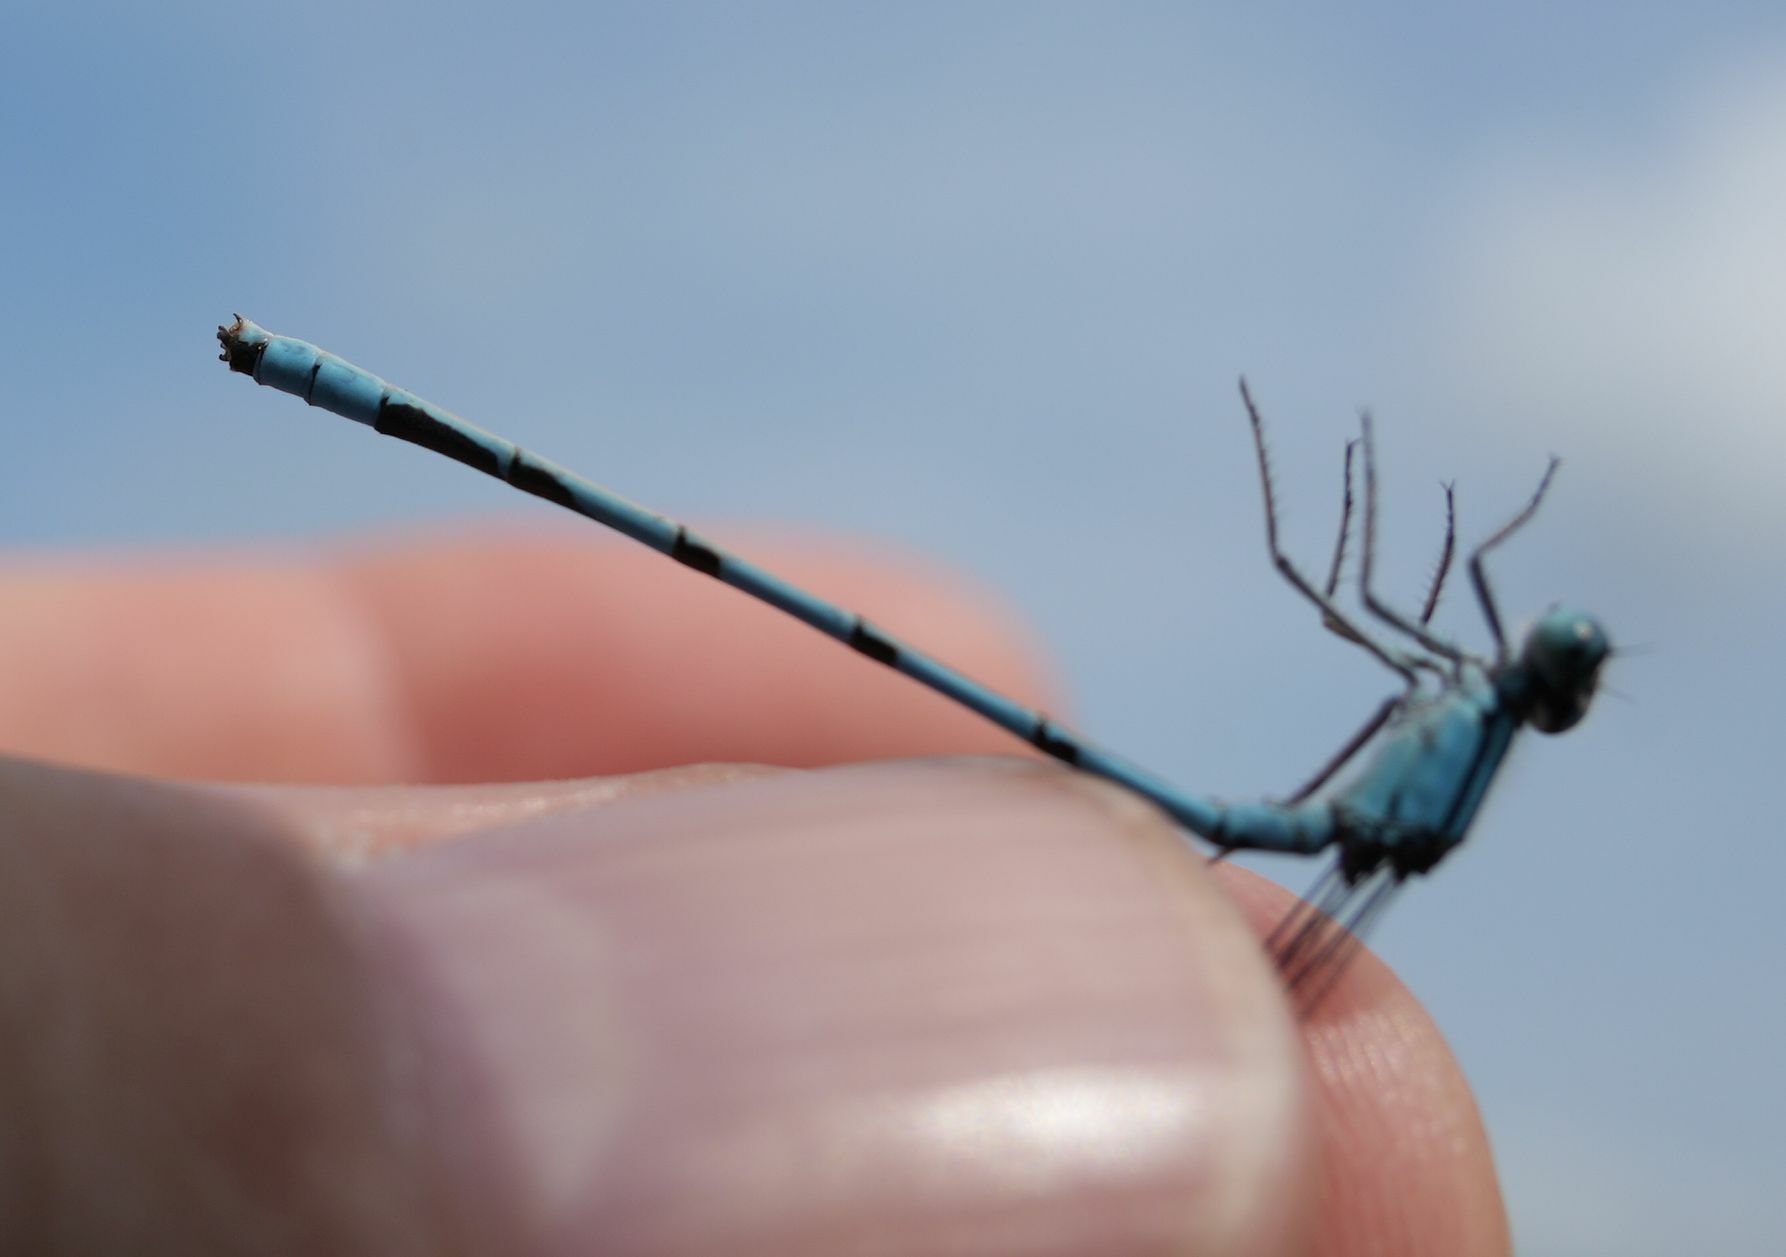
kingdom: Animalia
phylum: Arthropoda
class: Insecta
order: Odonata
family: Coenagrionidae
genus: Enallagma
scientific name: Enallagma ebrium
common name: Marsh bluet
